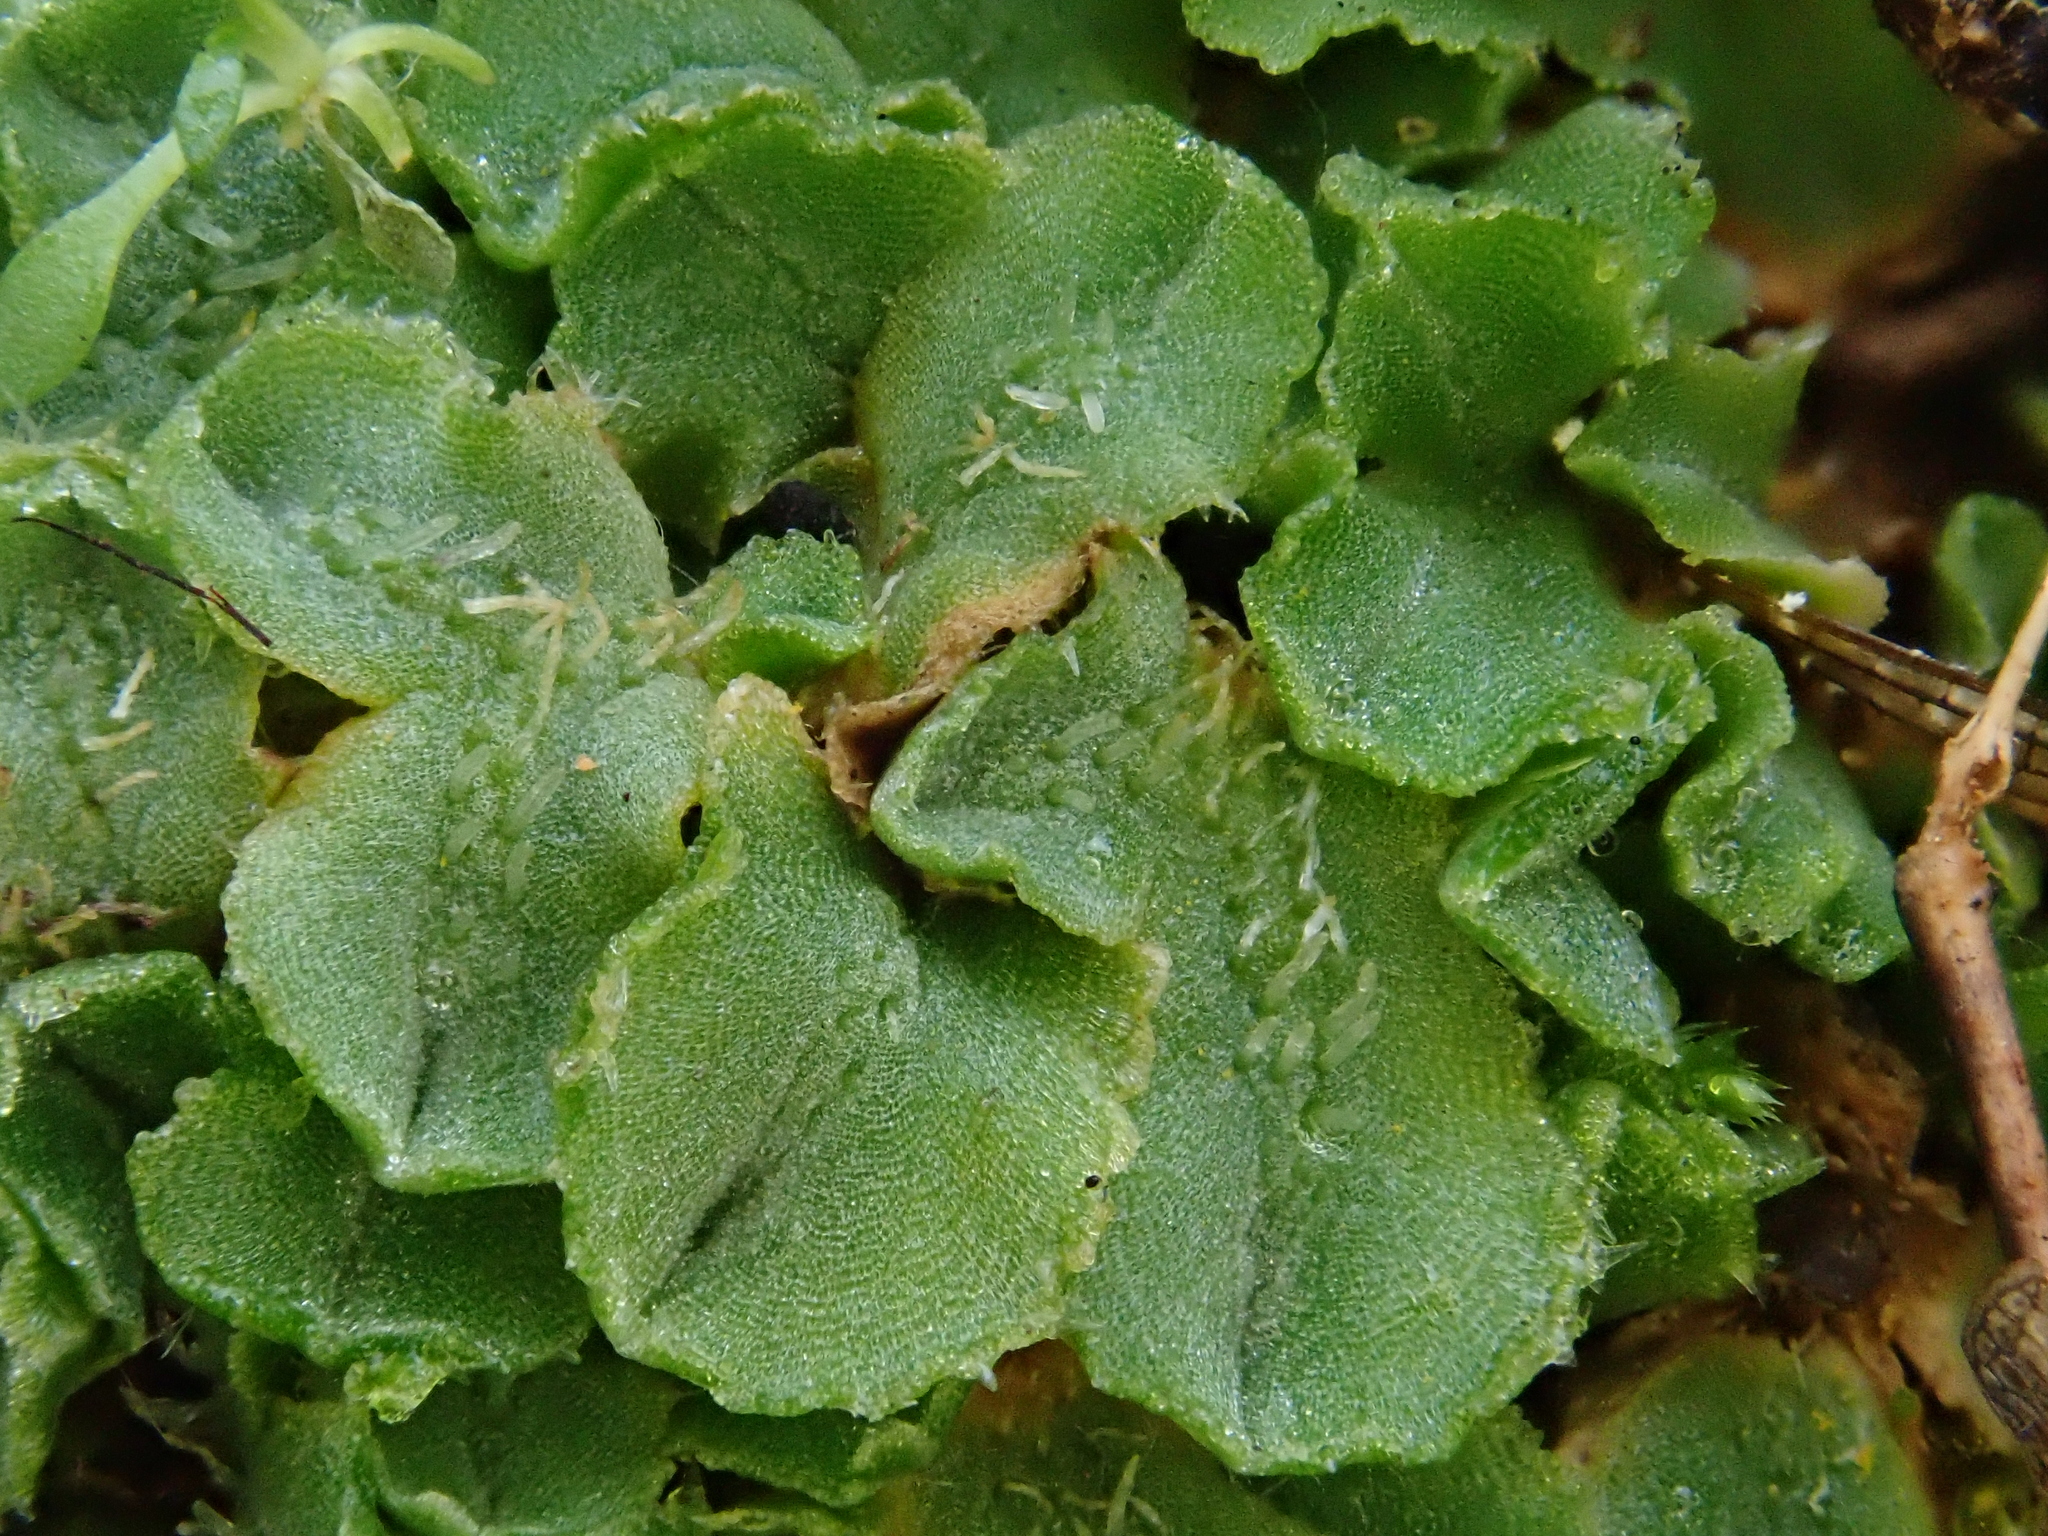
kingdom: Plantae
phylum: Marchantiophyta
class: Marchantiopsida
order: Marchantiales
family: Ricciaceae
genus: Riccia
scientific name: Riccia ciliifera
